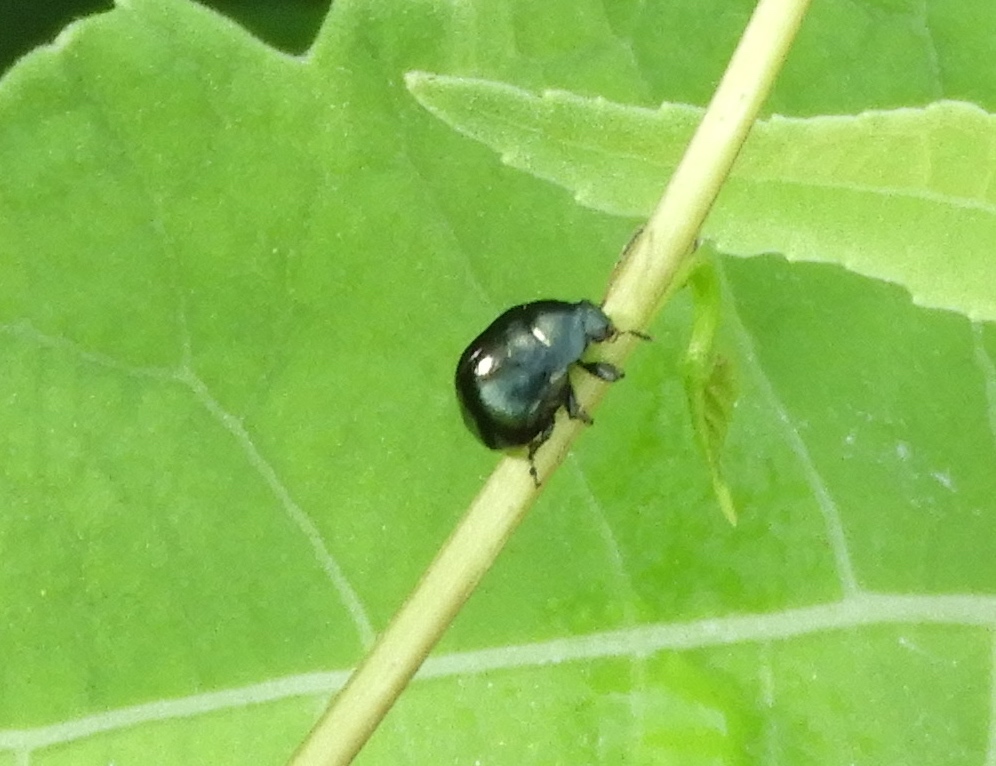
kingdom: Animalia
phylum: Arthropoda
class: Insecta
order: Coleoptera
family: Chrysomelidae
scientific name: Chrysomelidae
